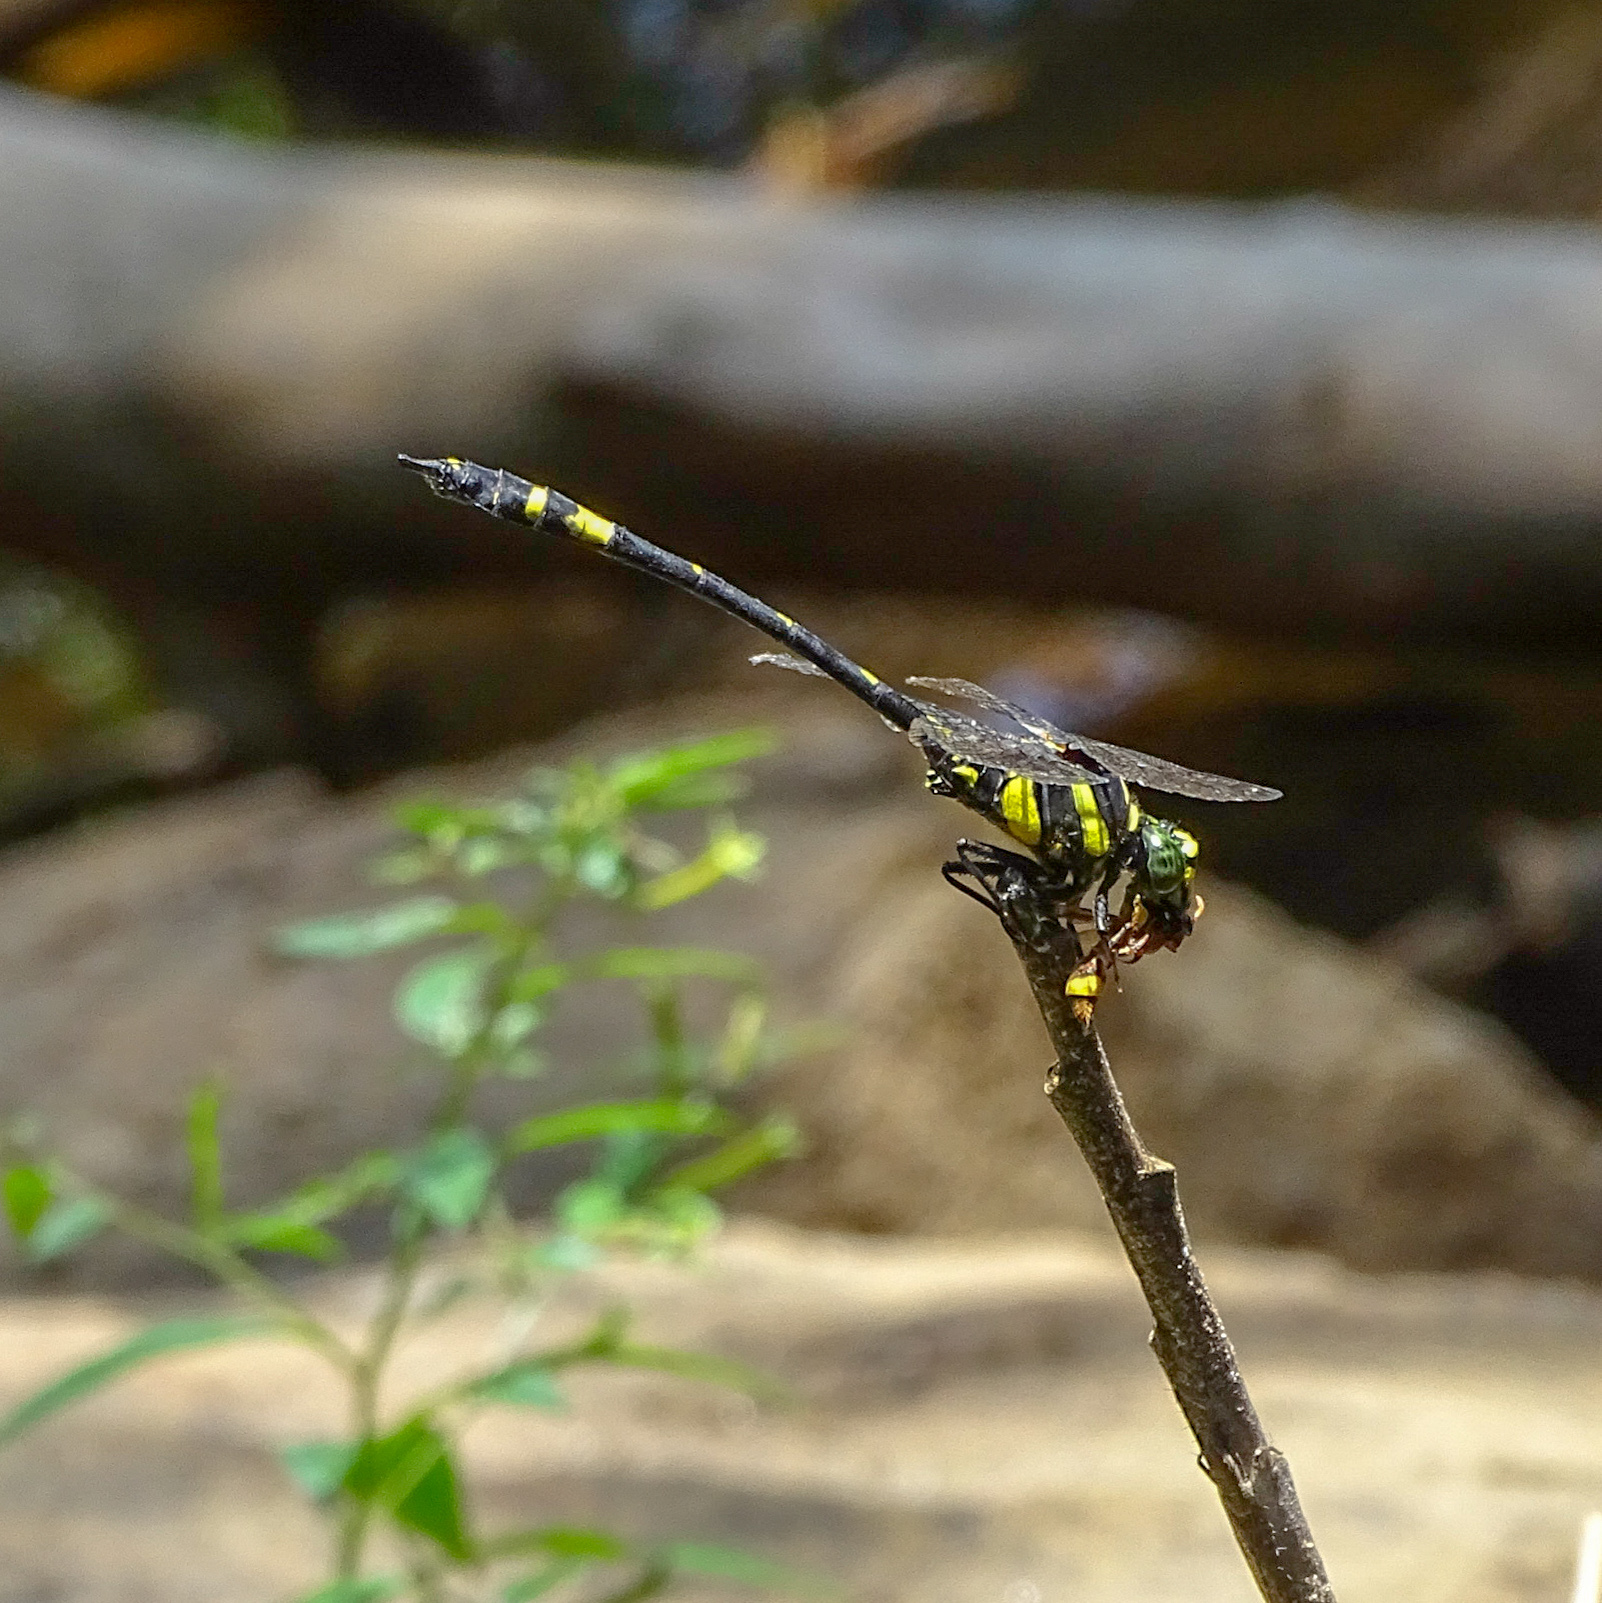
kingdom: Animalia
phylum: Arthropoda
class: Insecta
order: Odonata
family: Gomphidae
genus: Gomphidia
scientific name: Gomphidia kodaguensis
